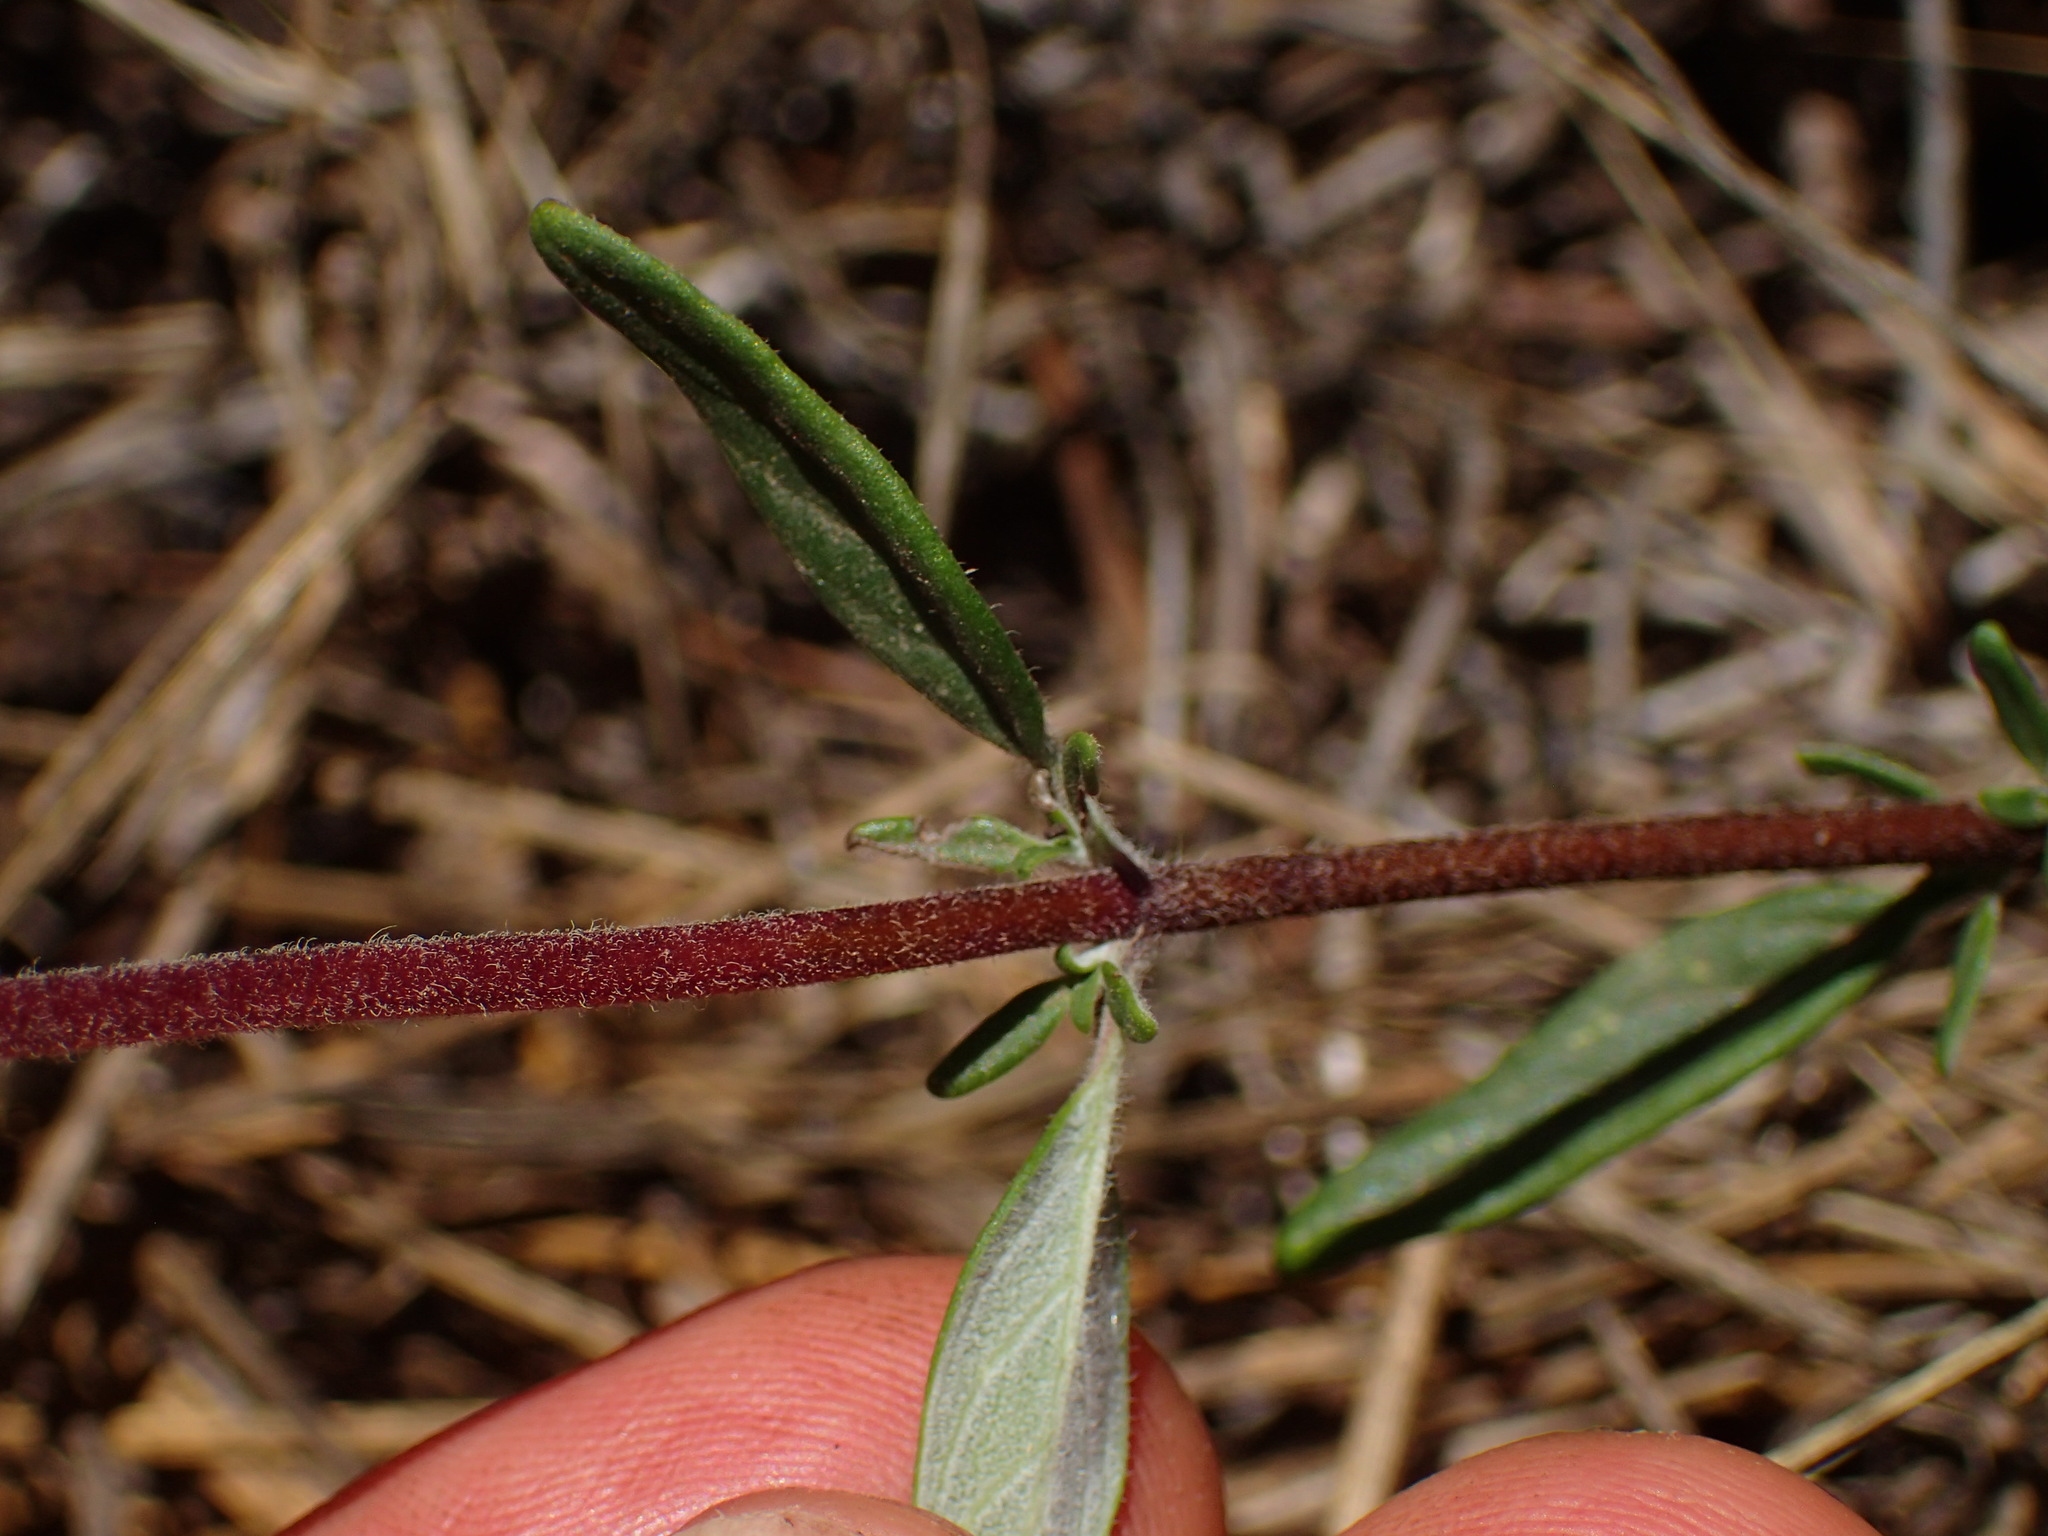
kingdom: Plantae
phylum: Tracheophyta
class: Magnoliopsida
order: Lamiales
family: Lamiaceae
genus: Monardella
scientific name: Monardella hypoleuca
